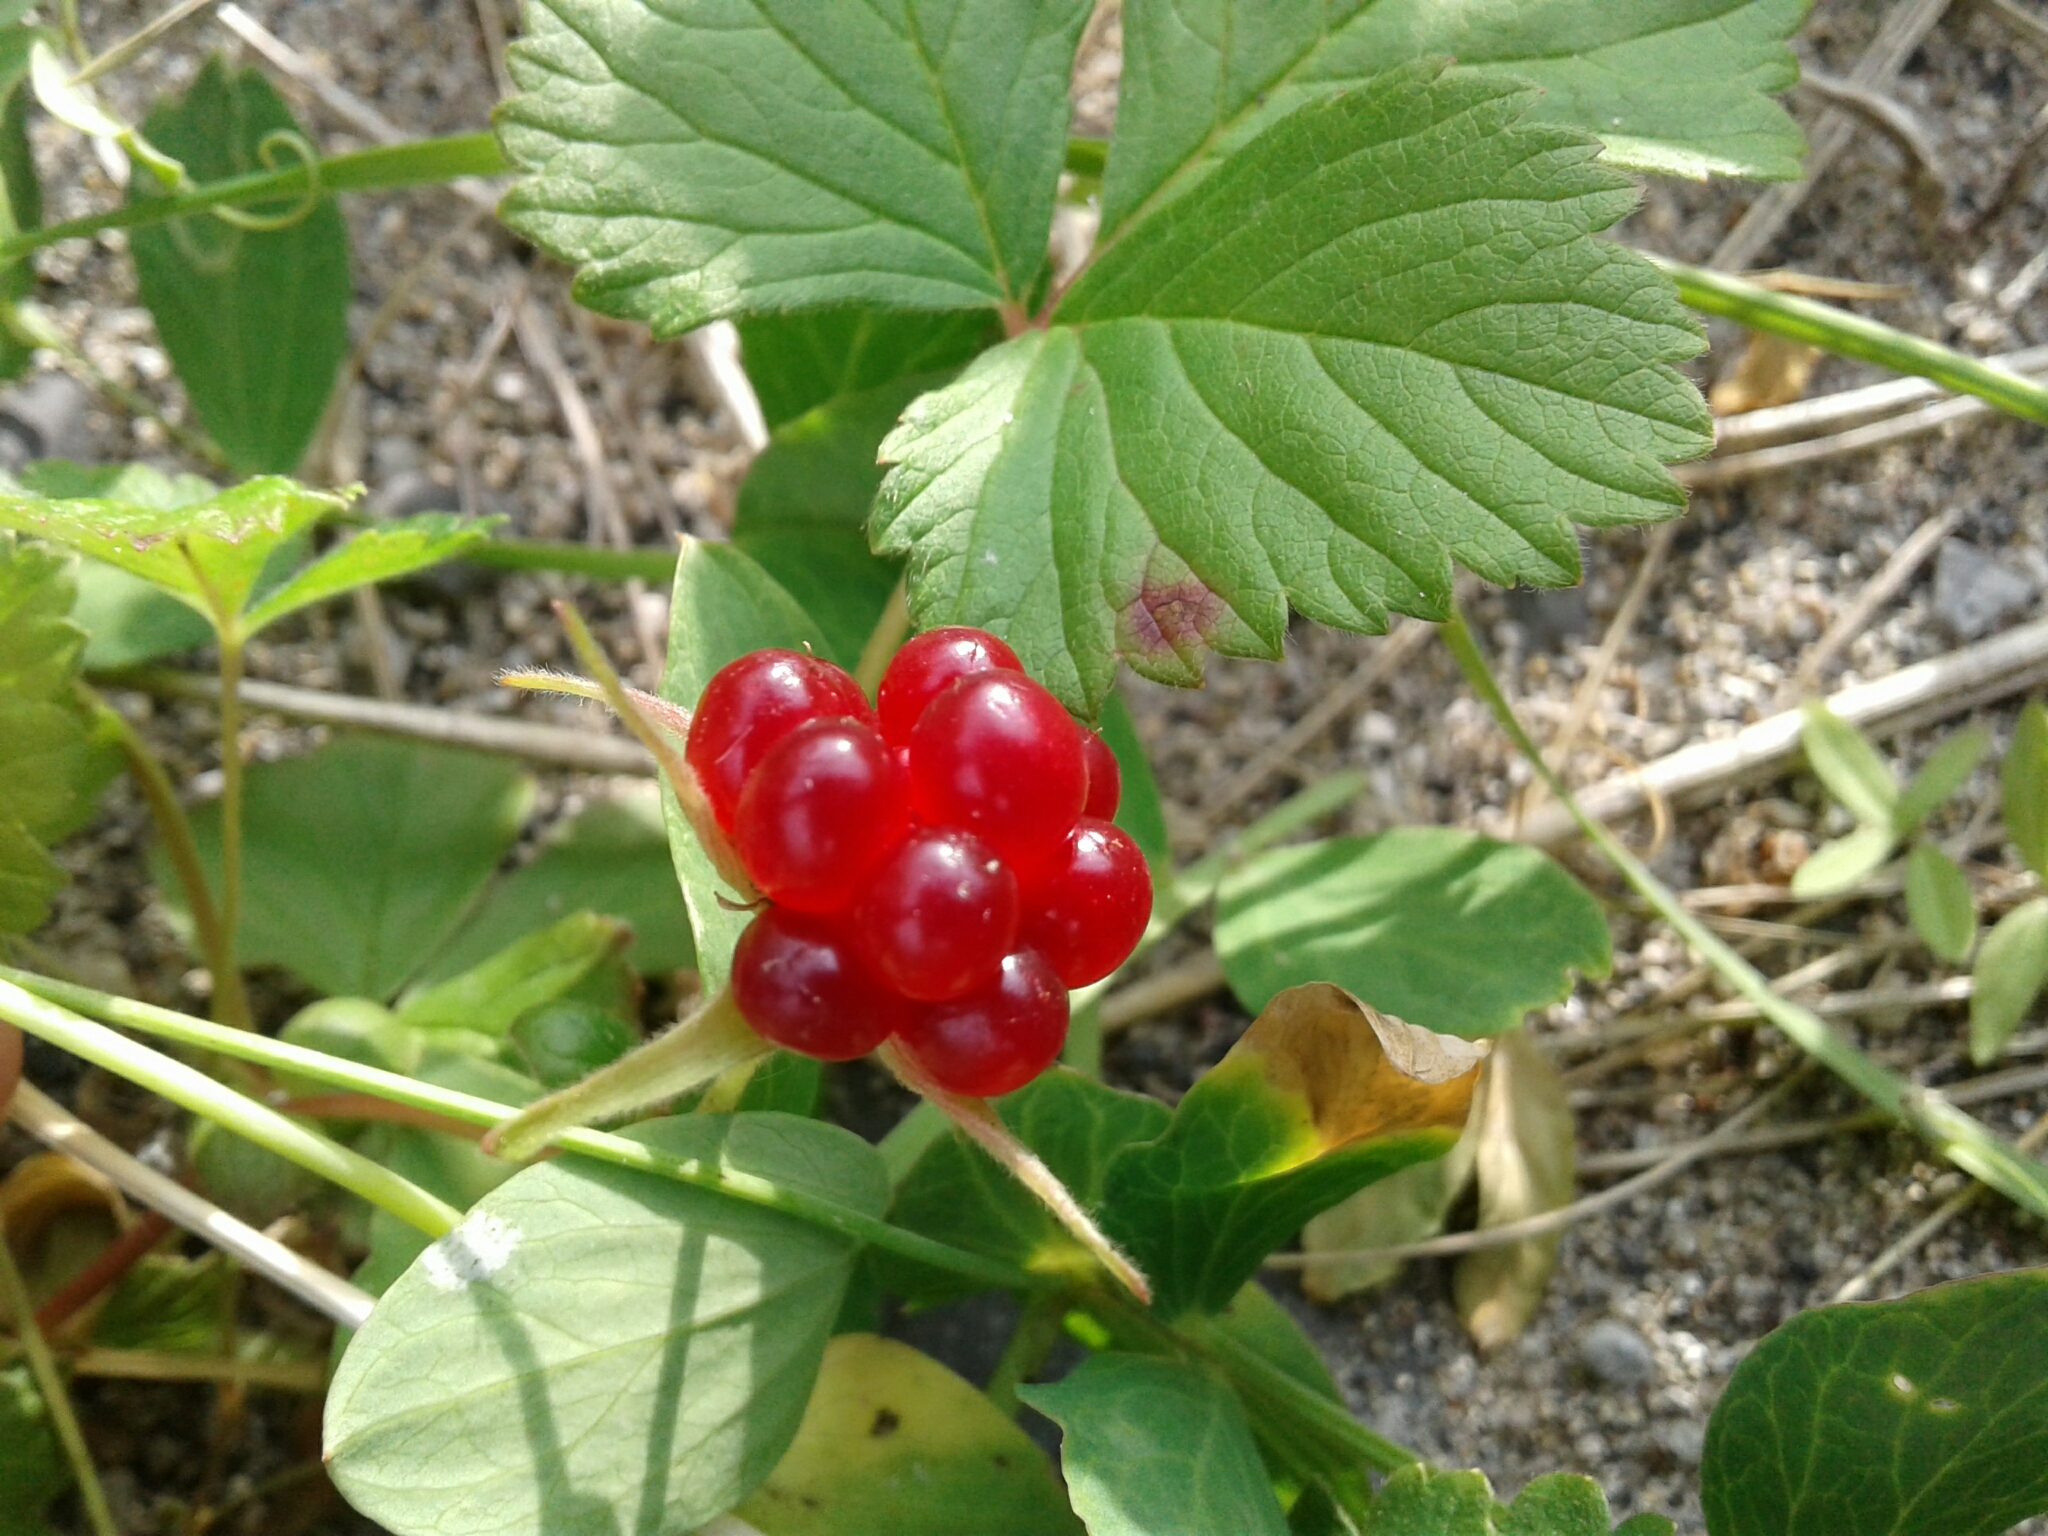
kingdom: Plantae
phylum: Tracheophyta
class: Magnoliopsida
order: Rosales
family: Rosaceae
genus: Rubus
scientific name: Rubus arcticus
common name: Arctic bramble
